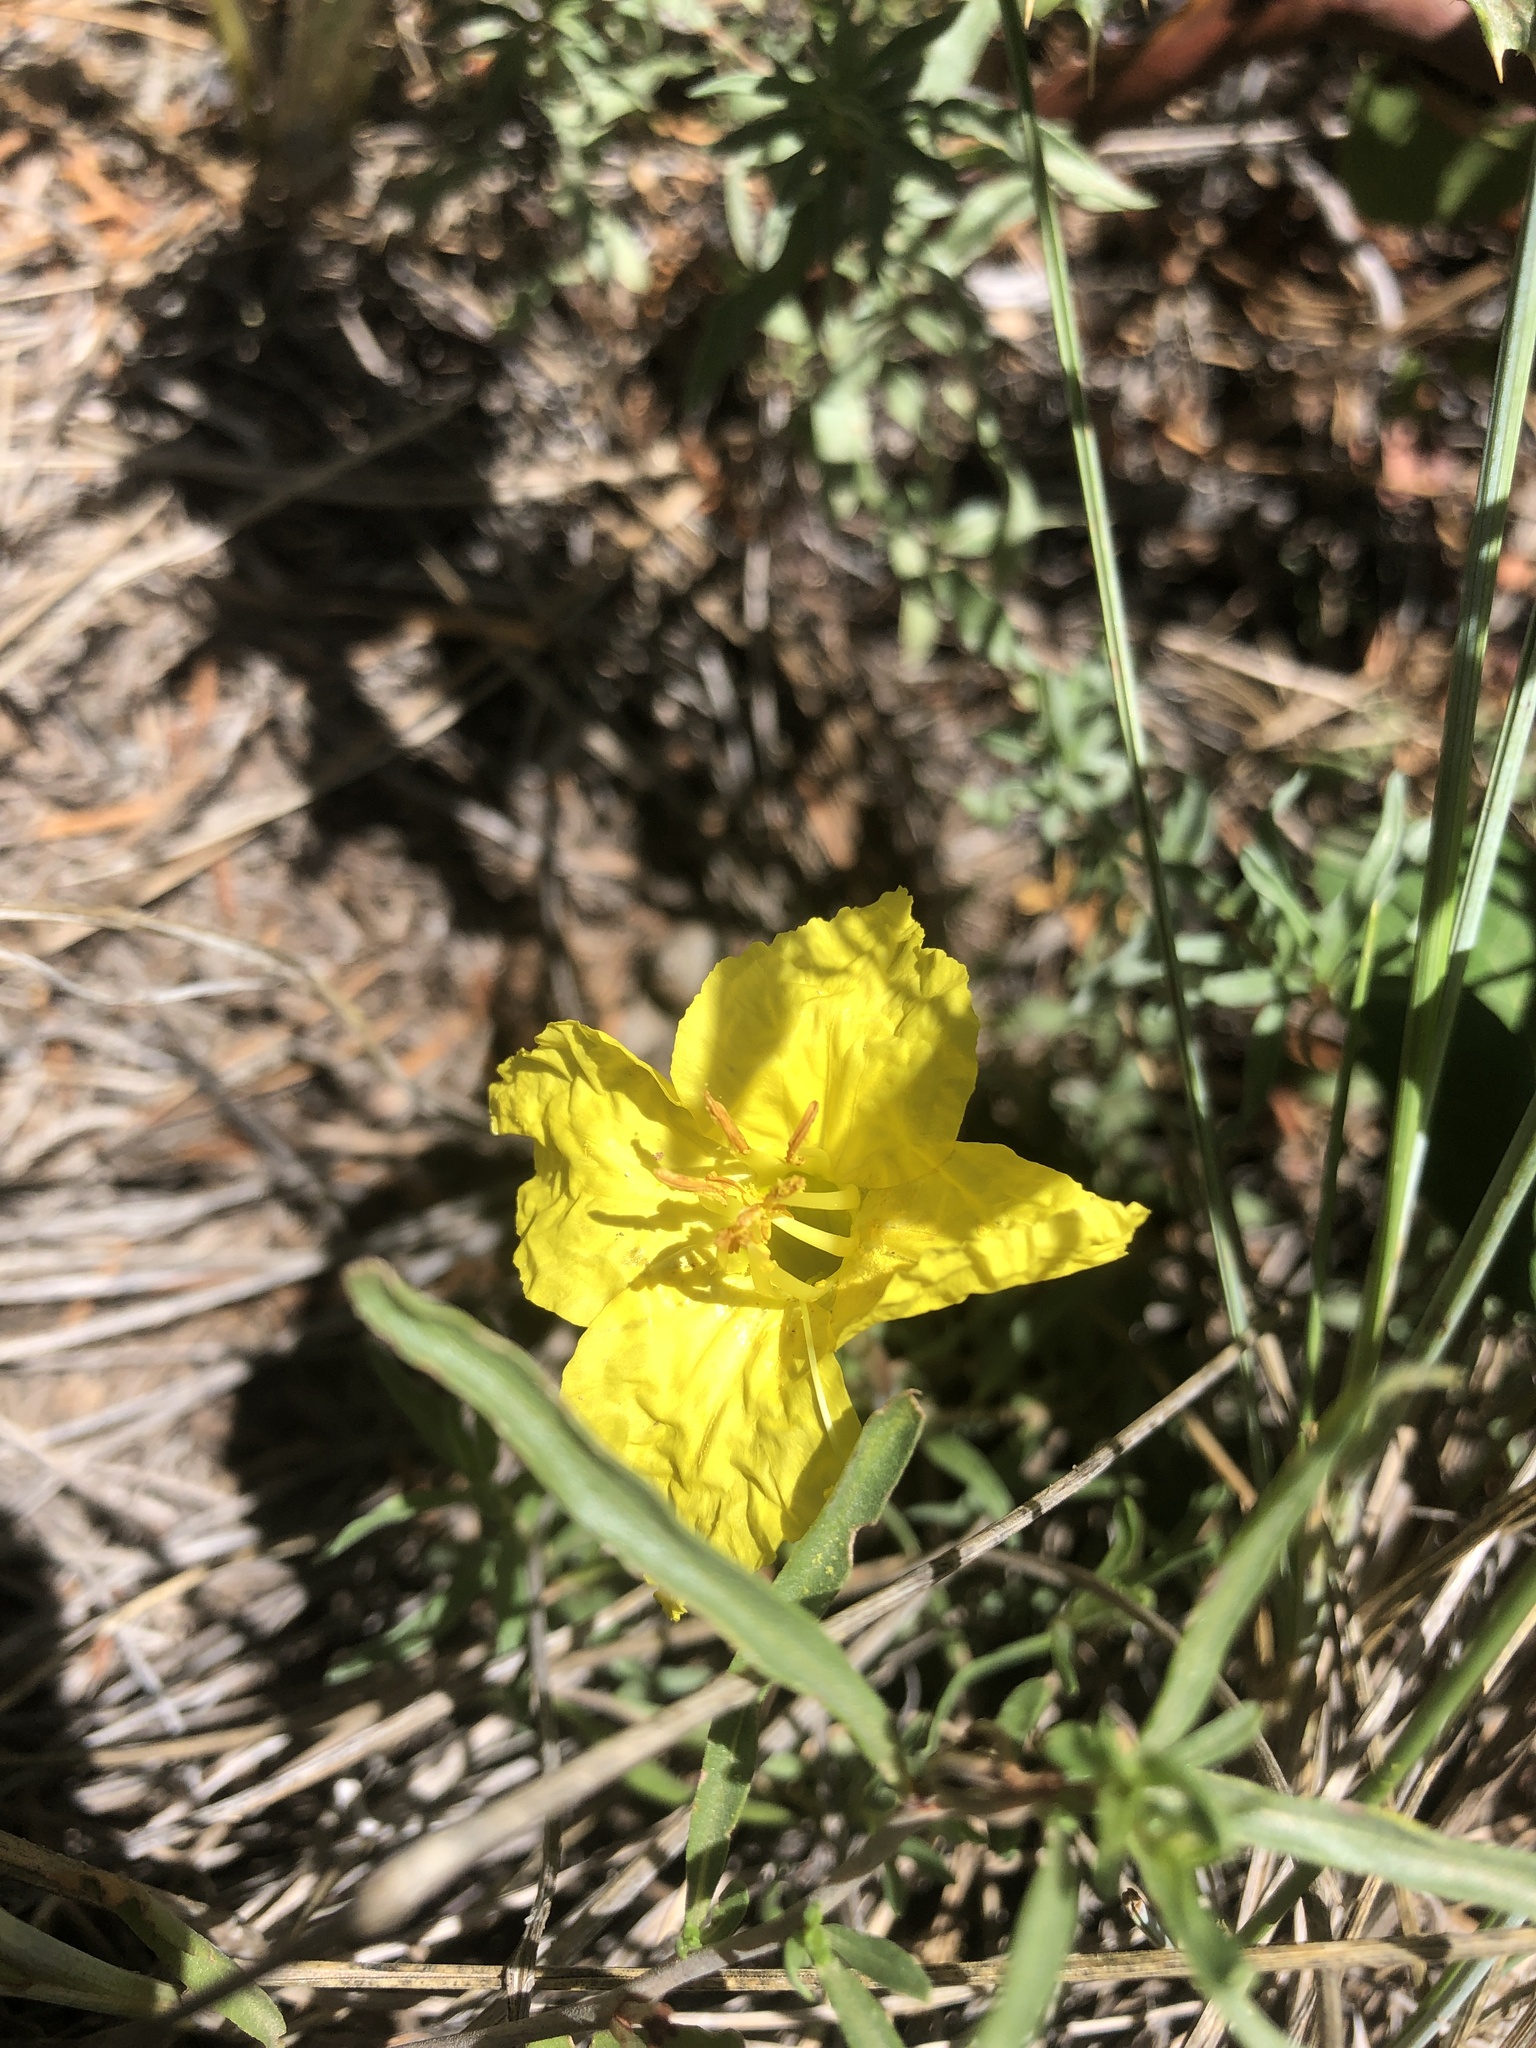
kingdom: Plantae
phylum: Tracheophyta
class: Magnoliopsida
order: Myrtales
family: Onagraceae
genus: Oenothera
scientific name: Oenothera lavandulifolia
